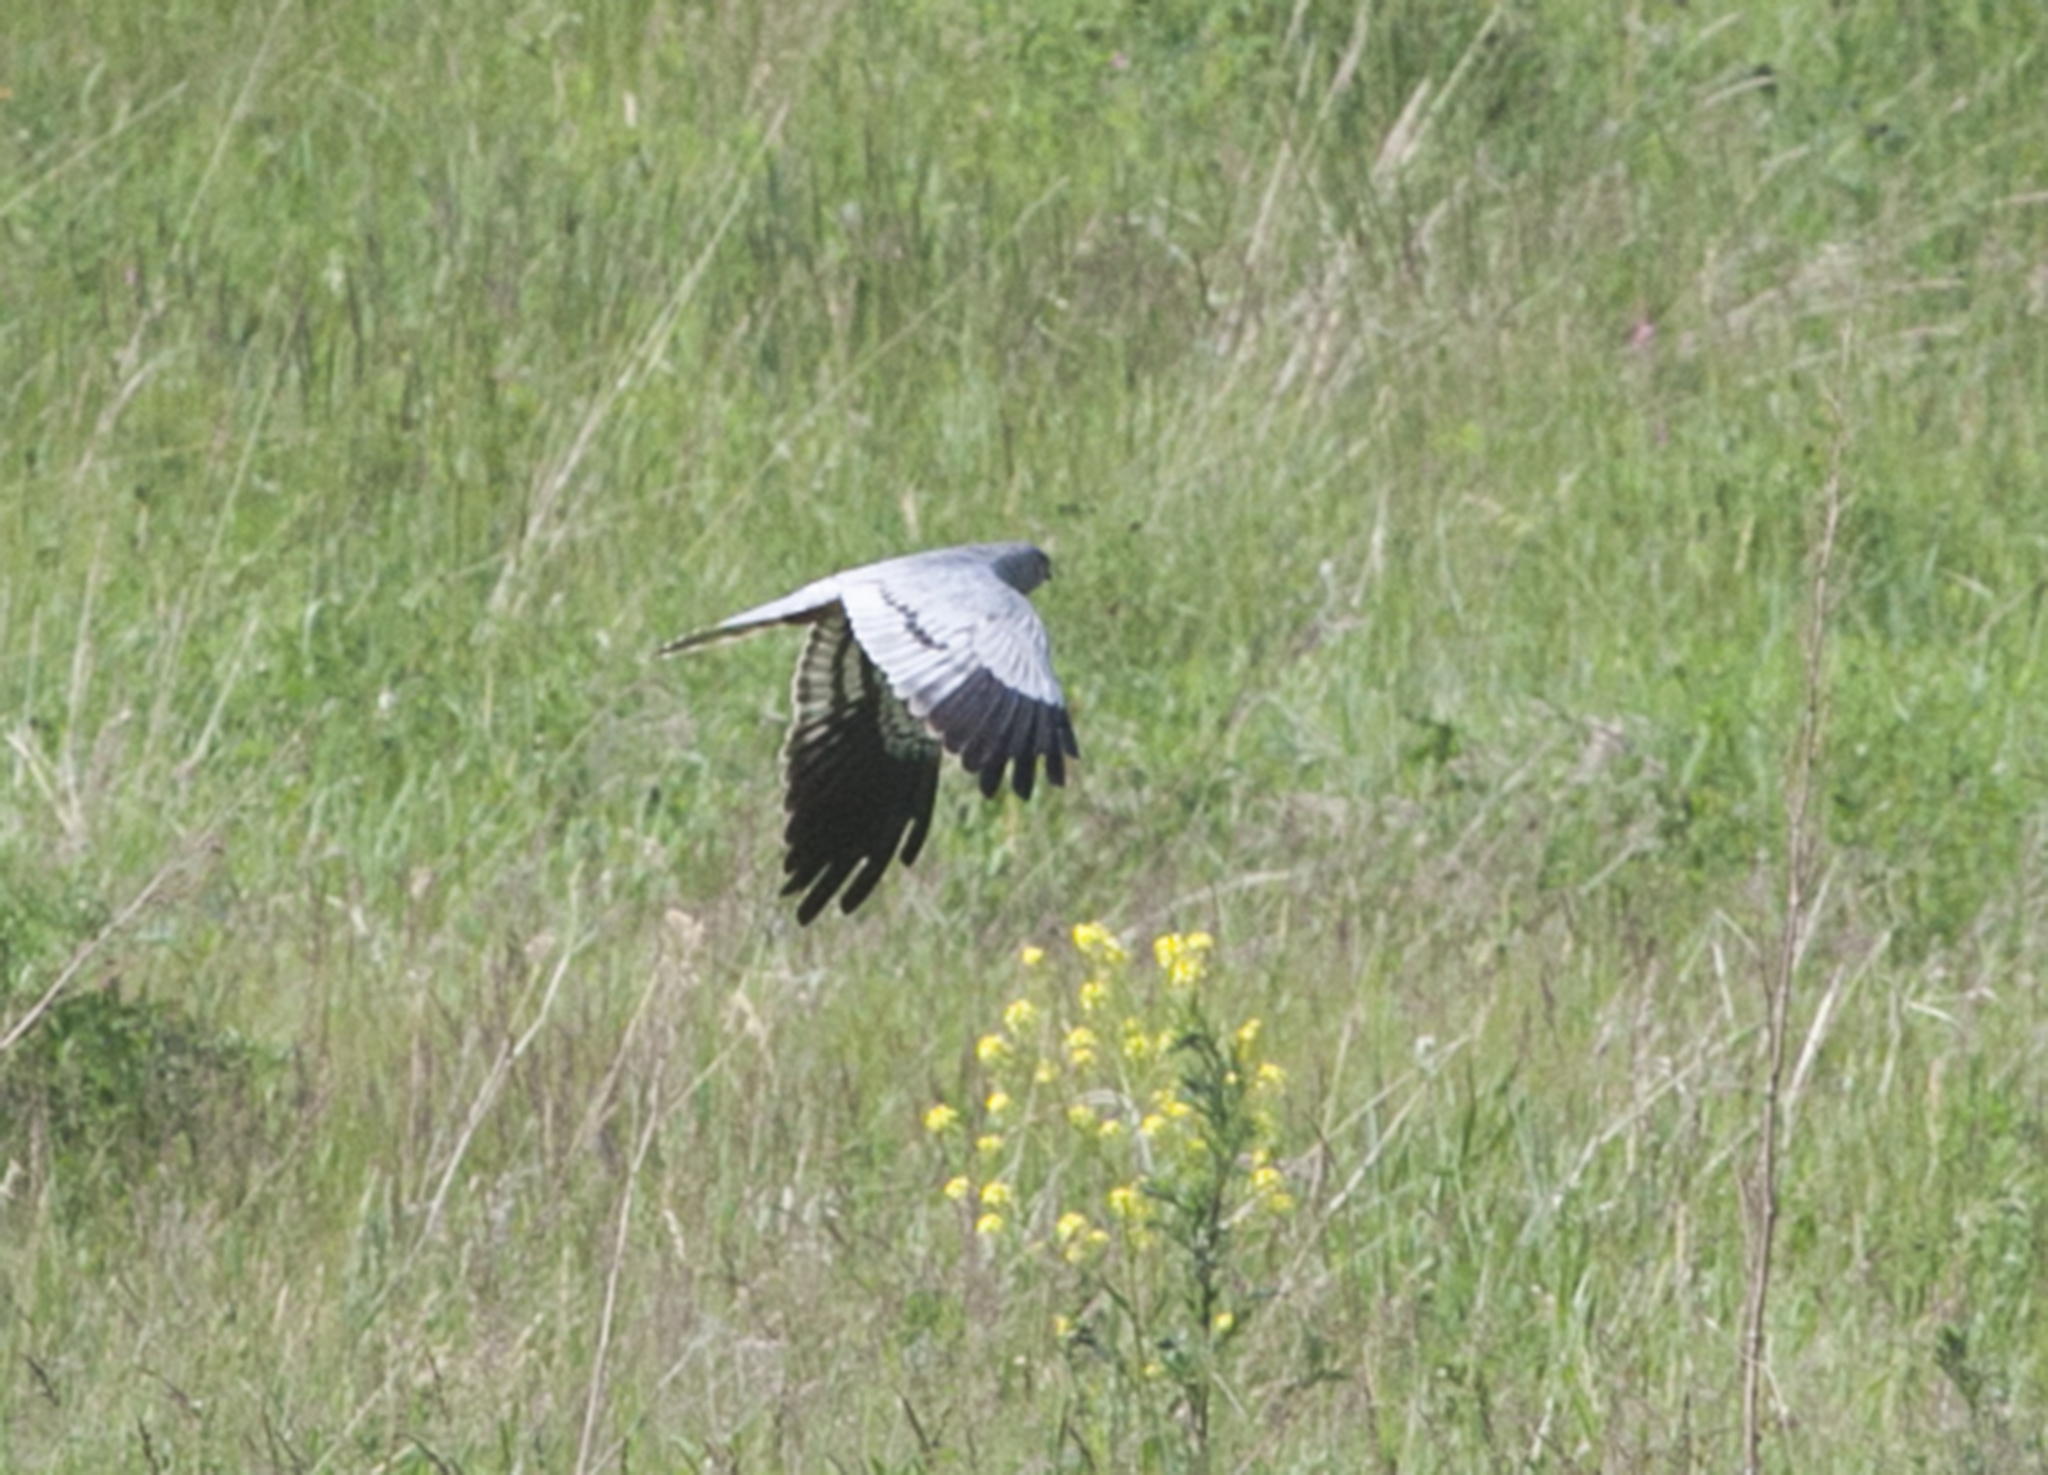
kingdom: Animalia
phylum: Chordata
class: Aves
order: Accipitriformes
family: Accipitridae
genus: Circus
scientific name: Circus pygargus
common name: Montagu's harrier
